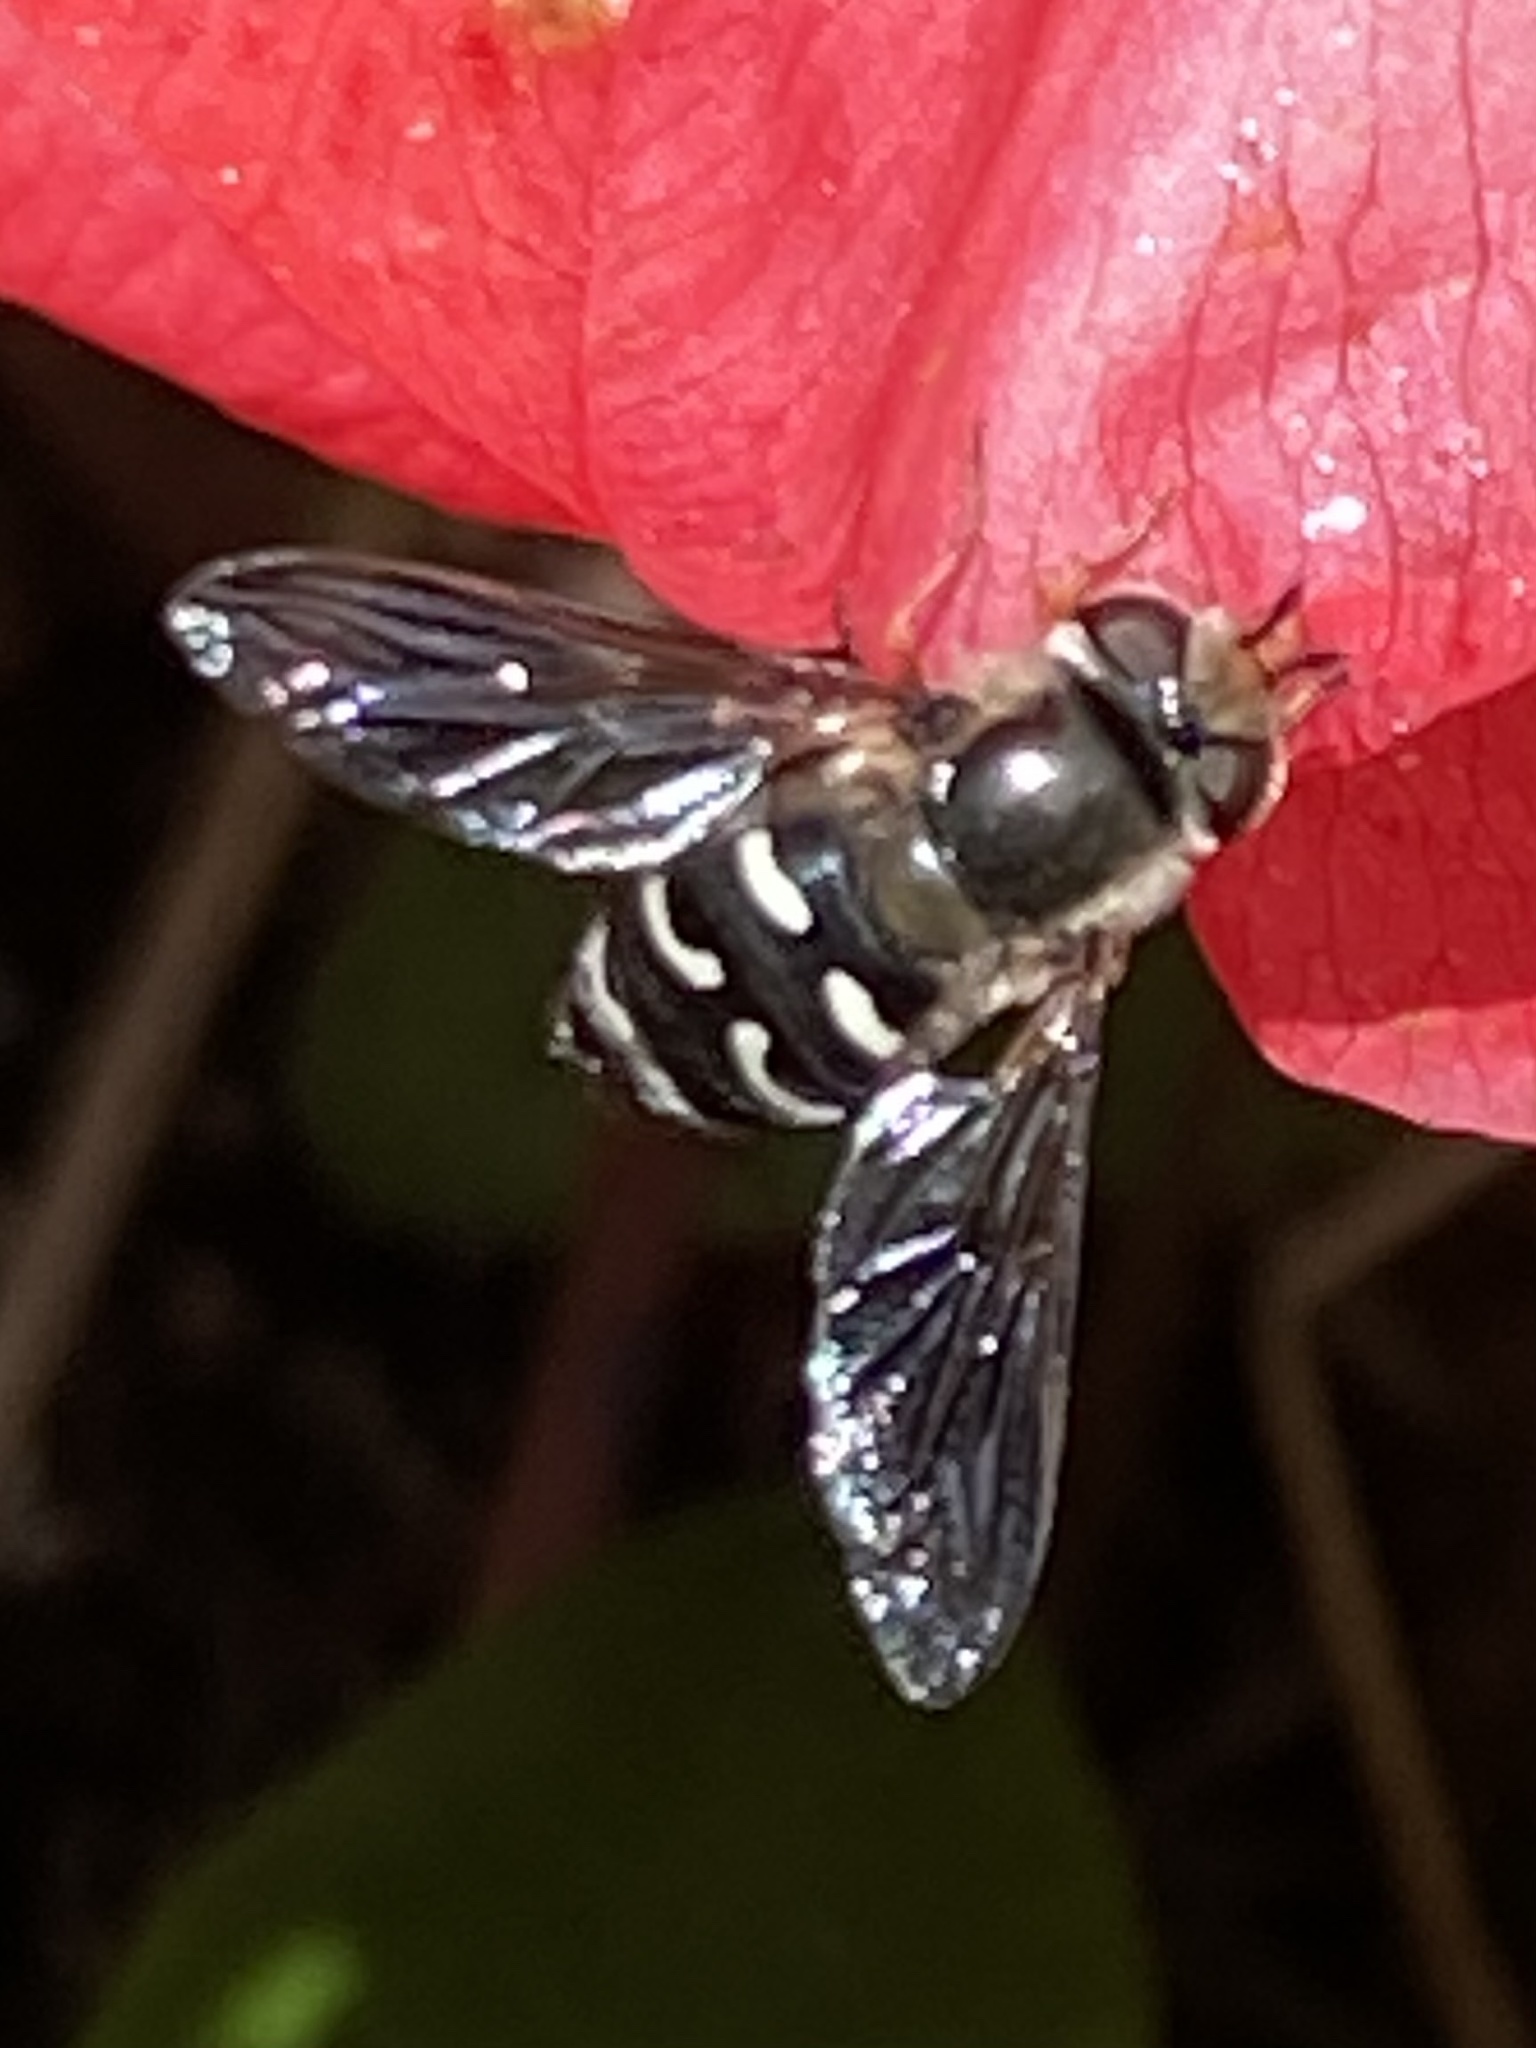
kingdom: Animalia
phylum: Arthropoda
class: Insecta
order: Diptera
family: Syrphidae
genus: Scaeva
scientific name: Scaeva affinis
